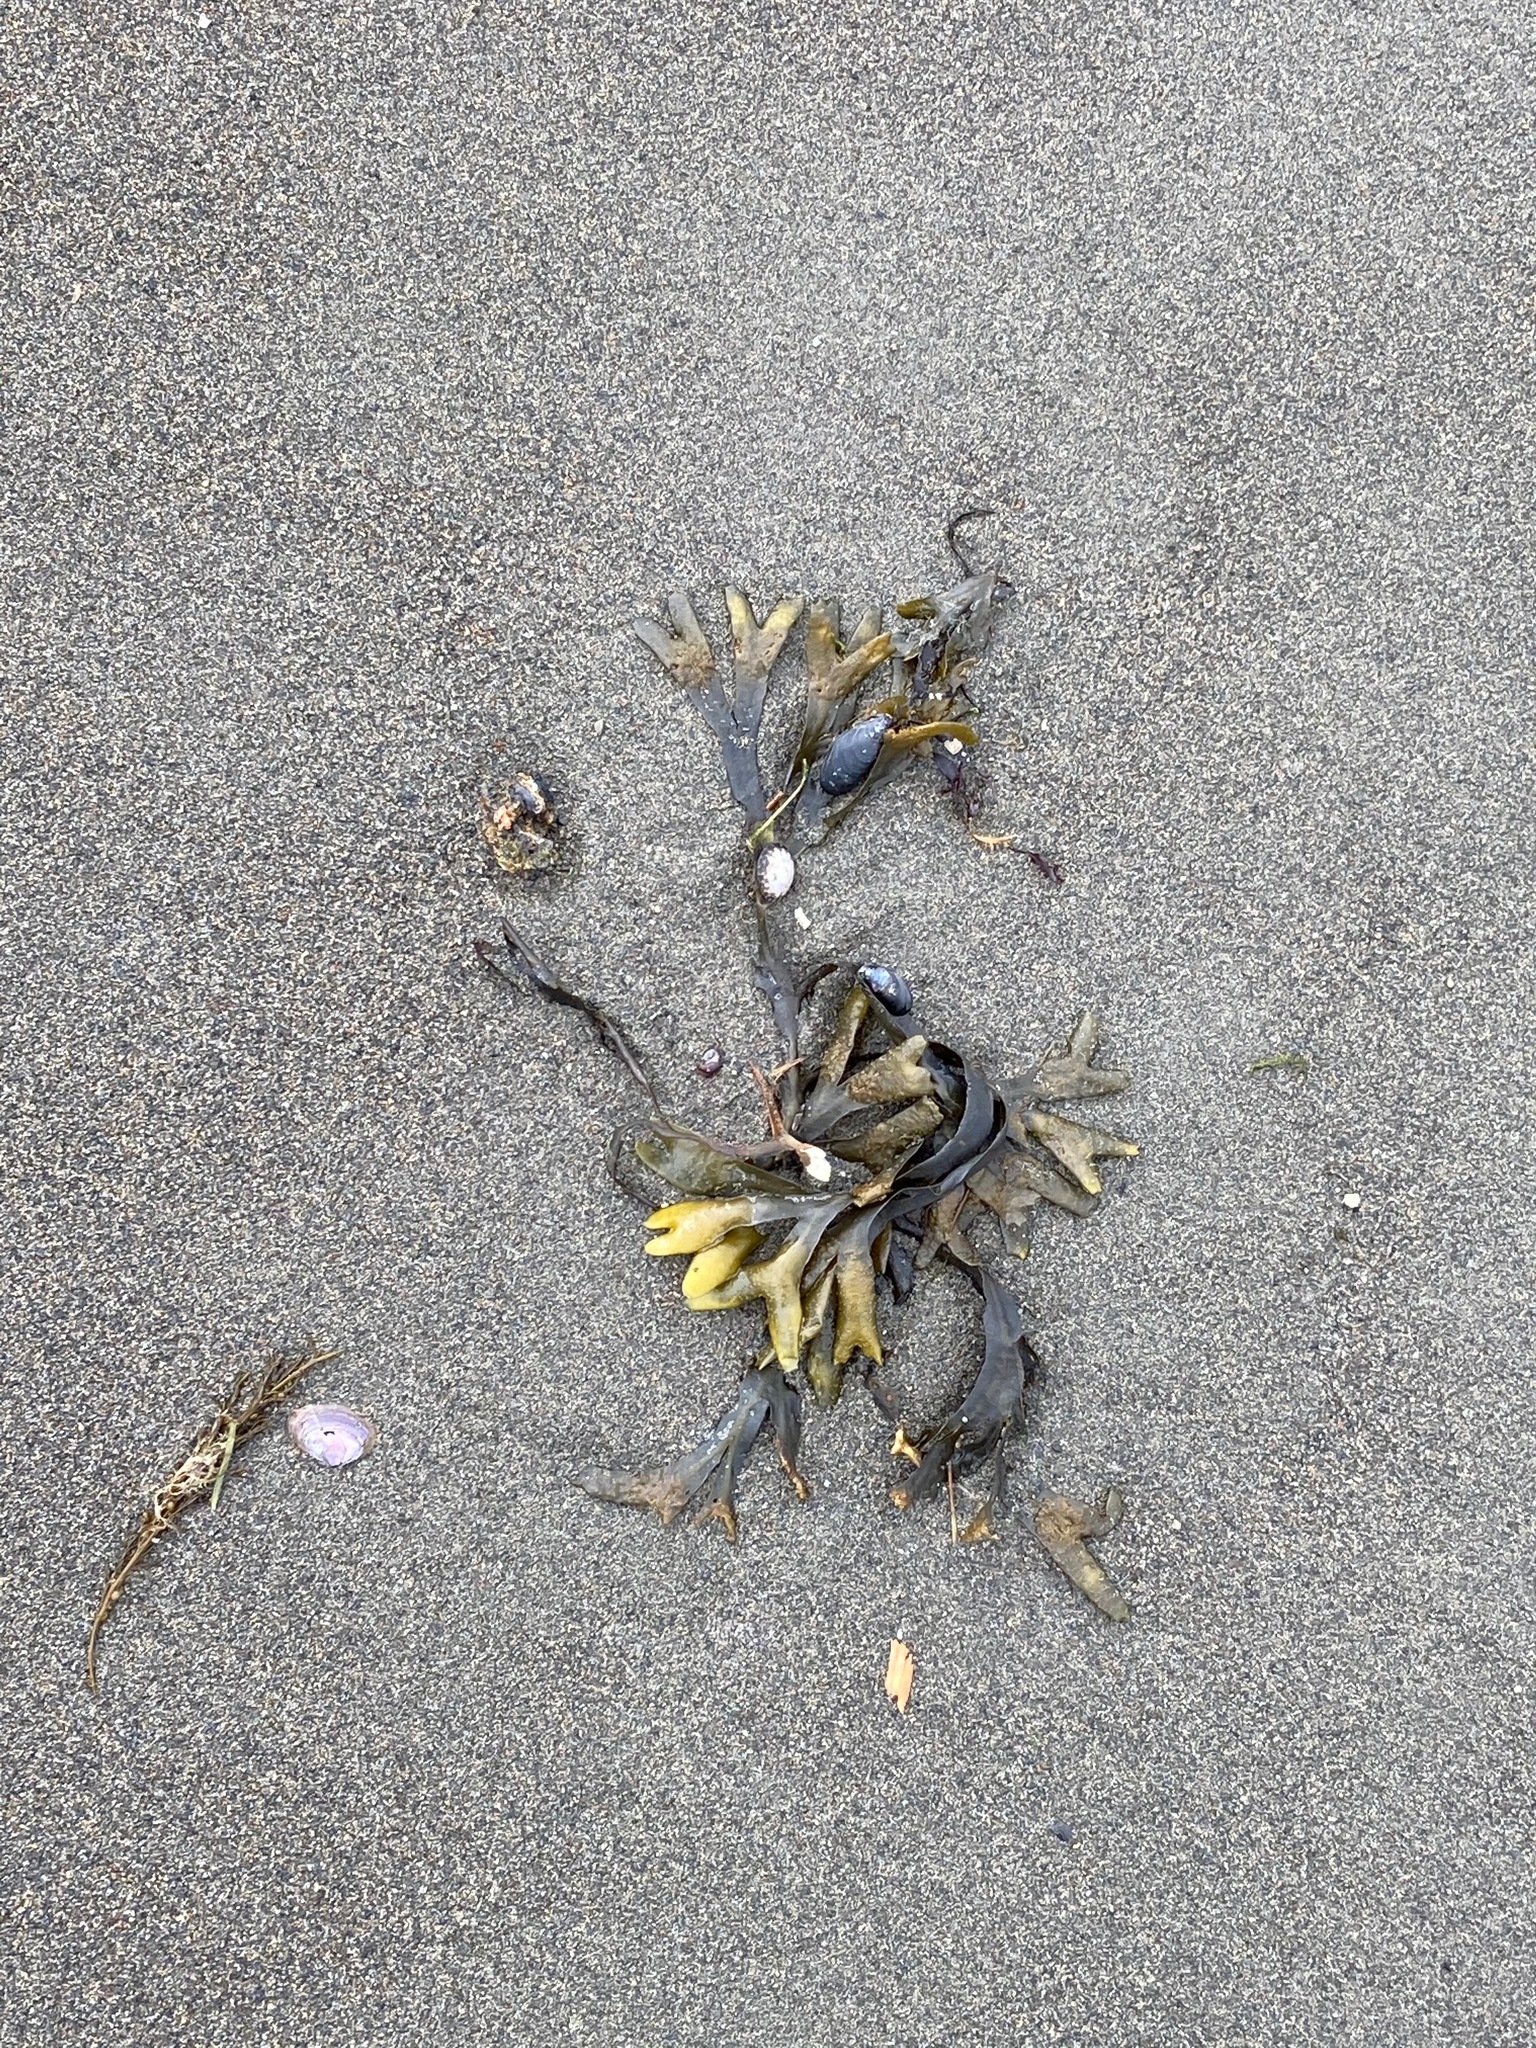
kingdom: Chromista
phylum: Ochrophyta
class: Phaeophyceae
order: Fucales
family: Fucaceae
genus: Fucus
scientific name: Fucus distichus
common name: Rockweed
